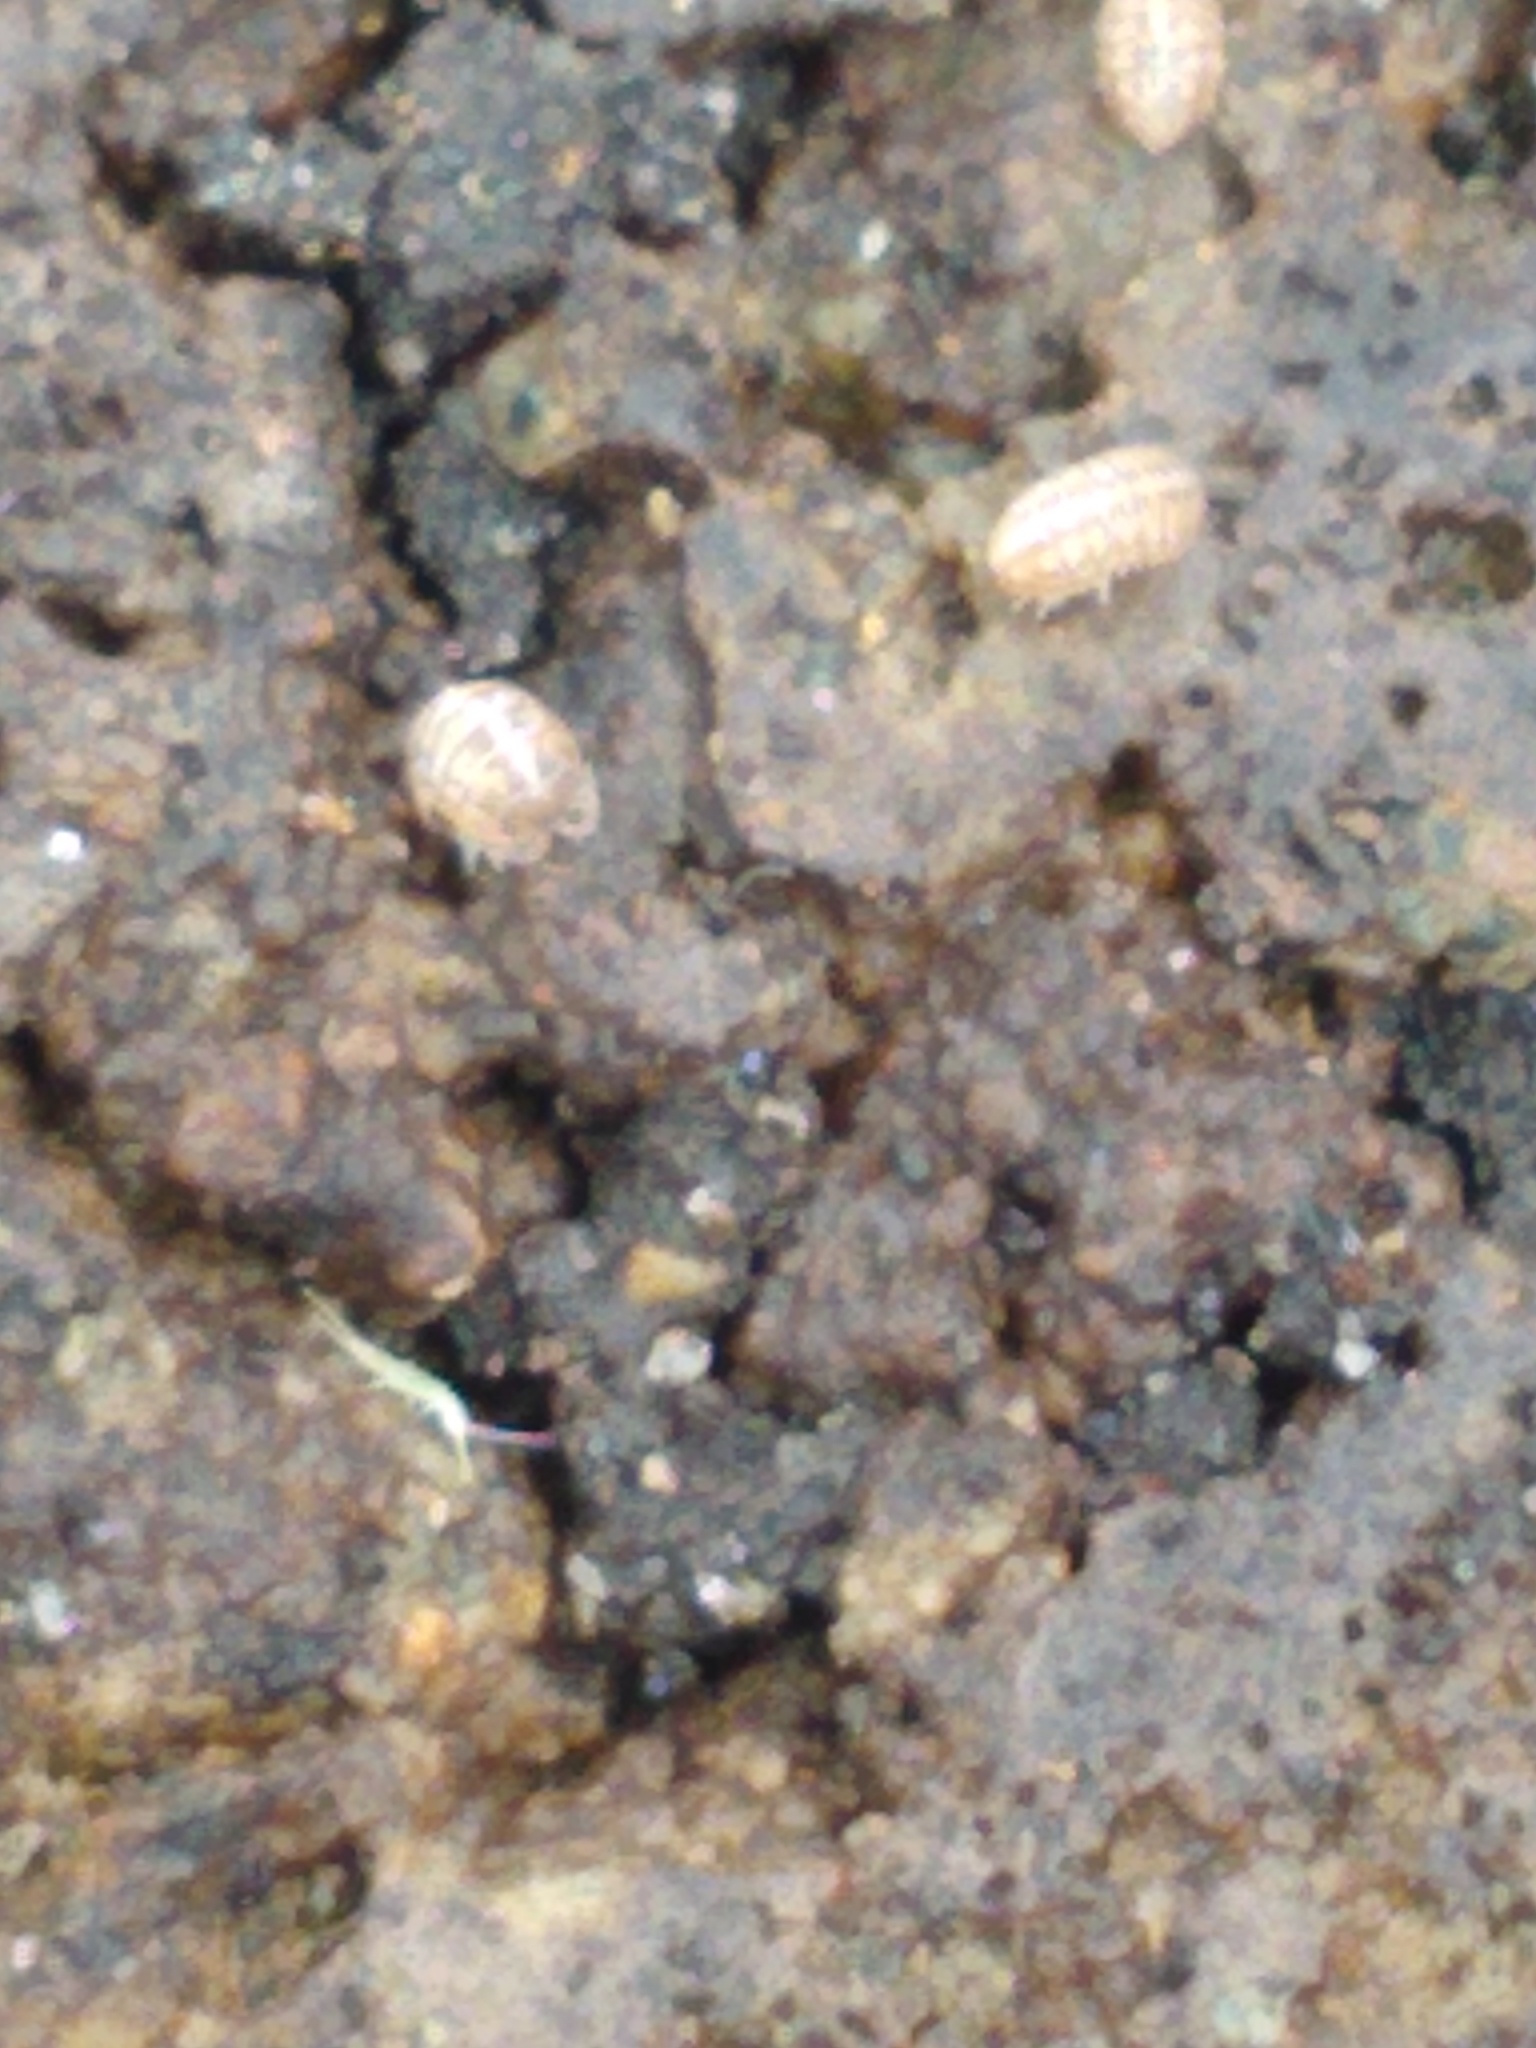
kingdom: Animalia
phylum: Arthropoda
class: Malacostraca
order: Isopoda
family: Armadillidiidae
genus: Armadillidium
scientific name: Armadillidium vulgare
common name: Common pill woodlouse
